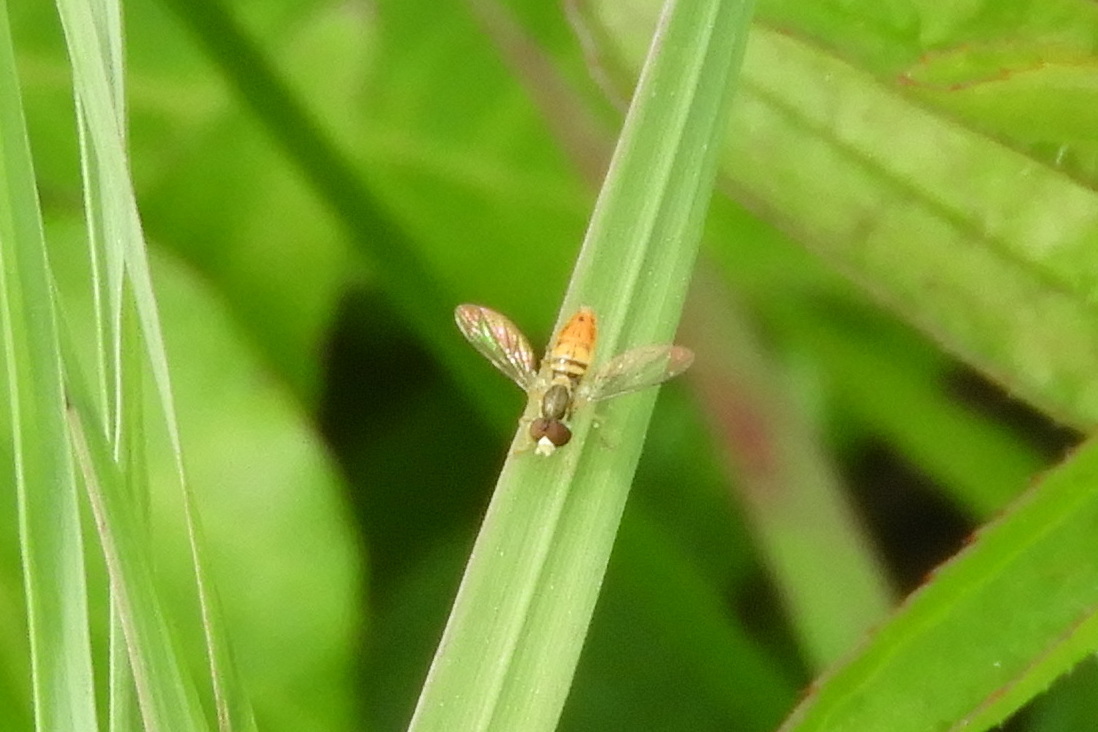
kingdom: Animalia
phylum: Arthropoda
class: Insecta
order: Diptera
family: Syrphidae
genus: Toxomerus
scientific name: Toxomerus marginatus
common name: Syrphid fly
